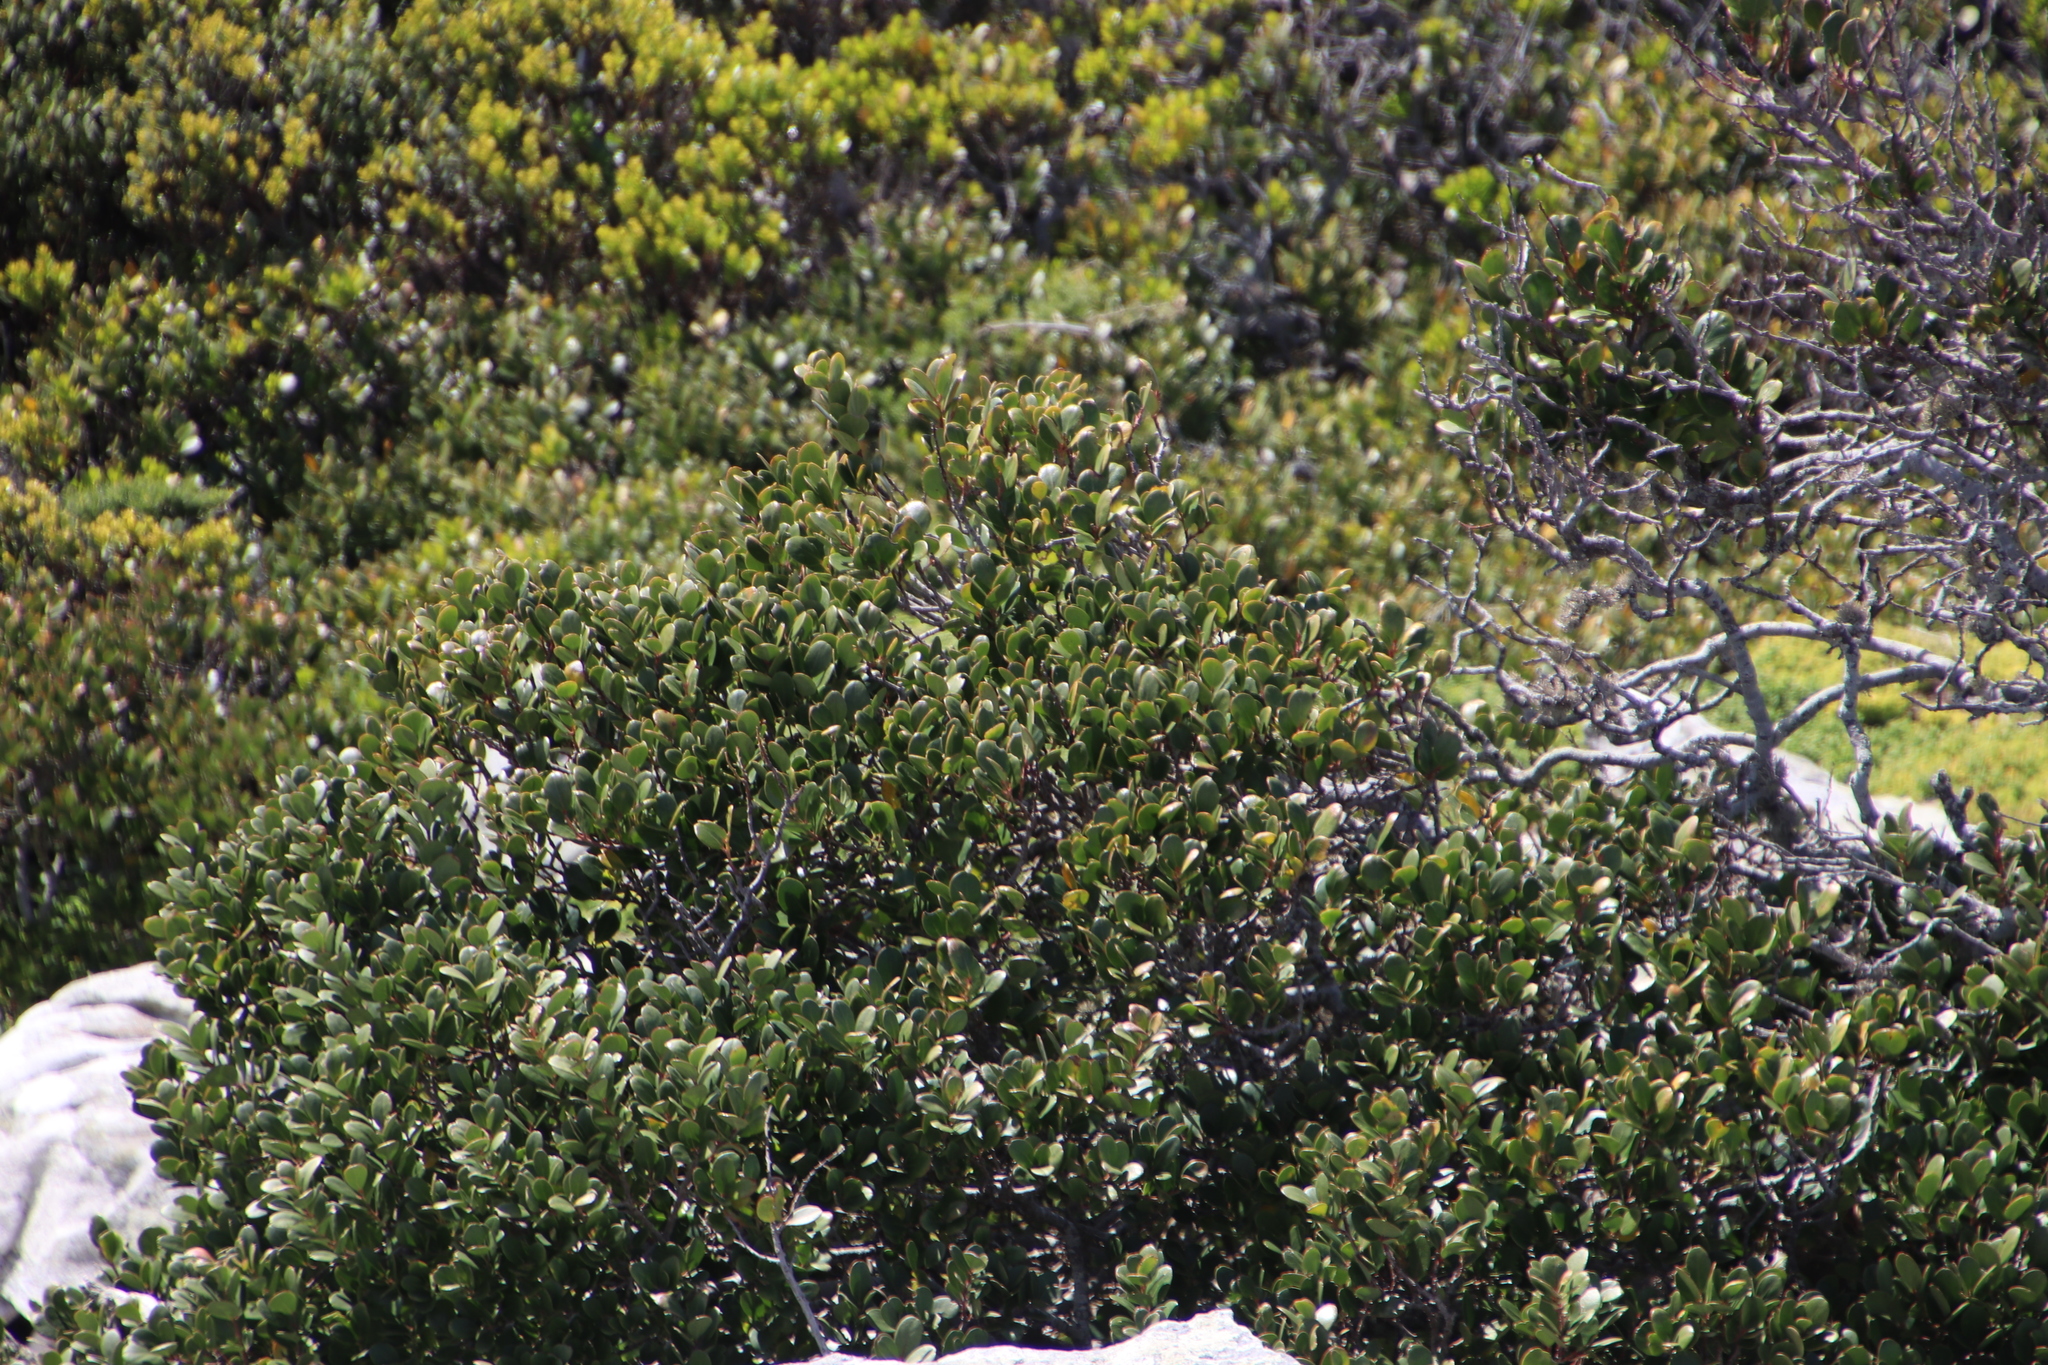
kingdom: Plantae
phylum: Tracheophyta
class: Magnoliopsida
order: Ericales
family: Ebenaceae
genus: Euclea
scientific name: Euclea racemosa
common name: Dune guarri
